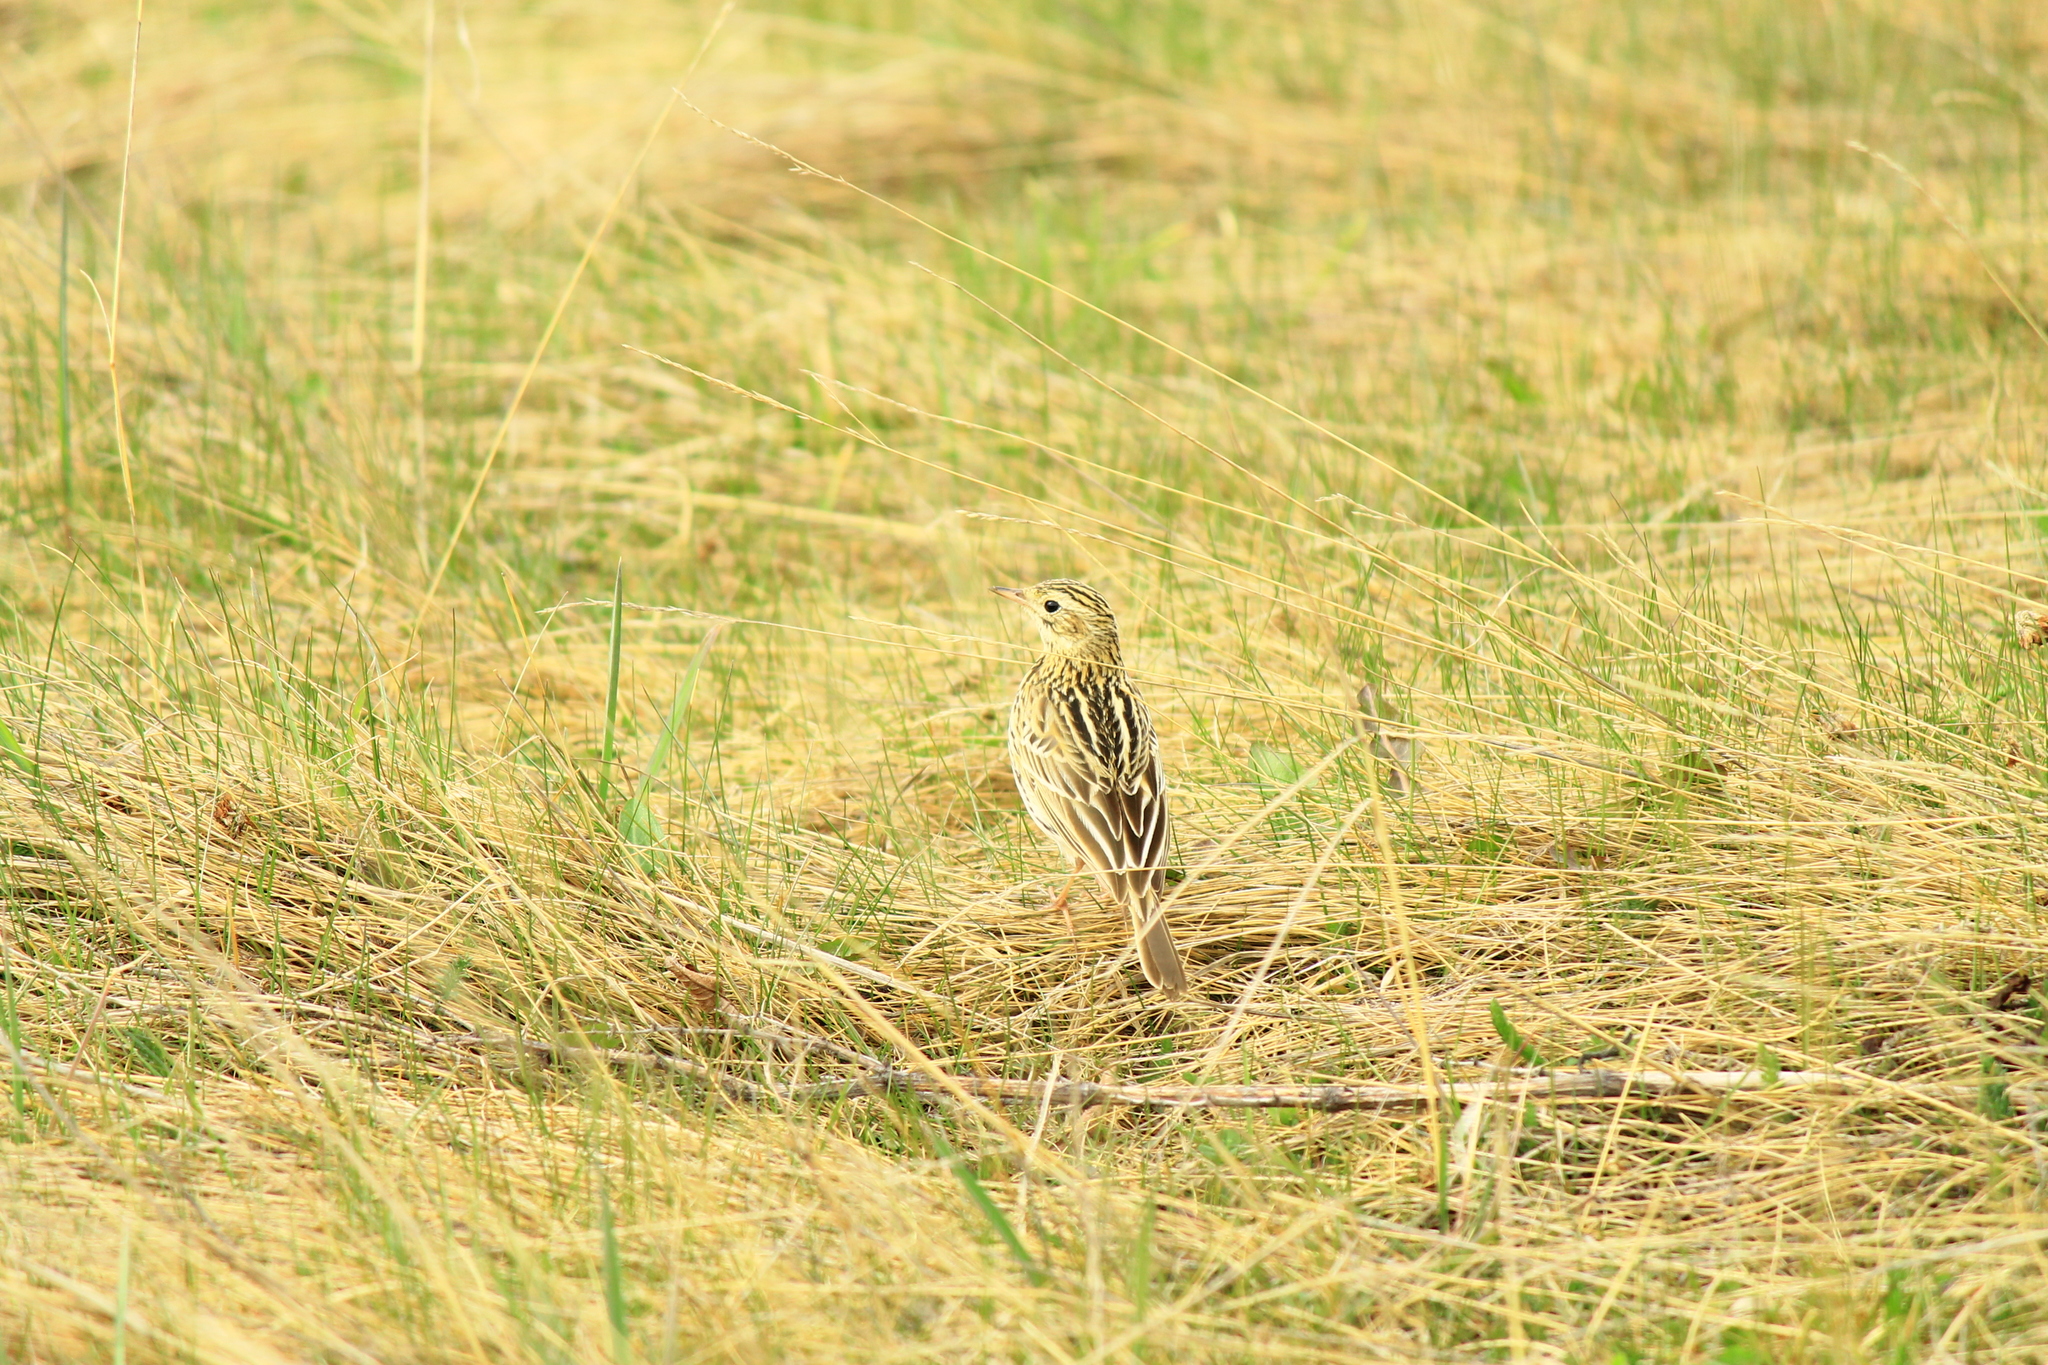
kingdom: Animalia
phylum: Chordata
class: Aves
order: Passeriformes
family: Motacillidae
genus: Anthus
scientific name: Anthus correndera
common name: Correndera pipit
